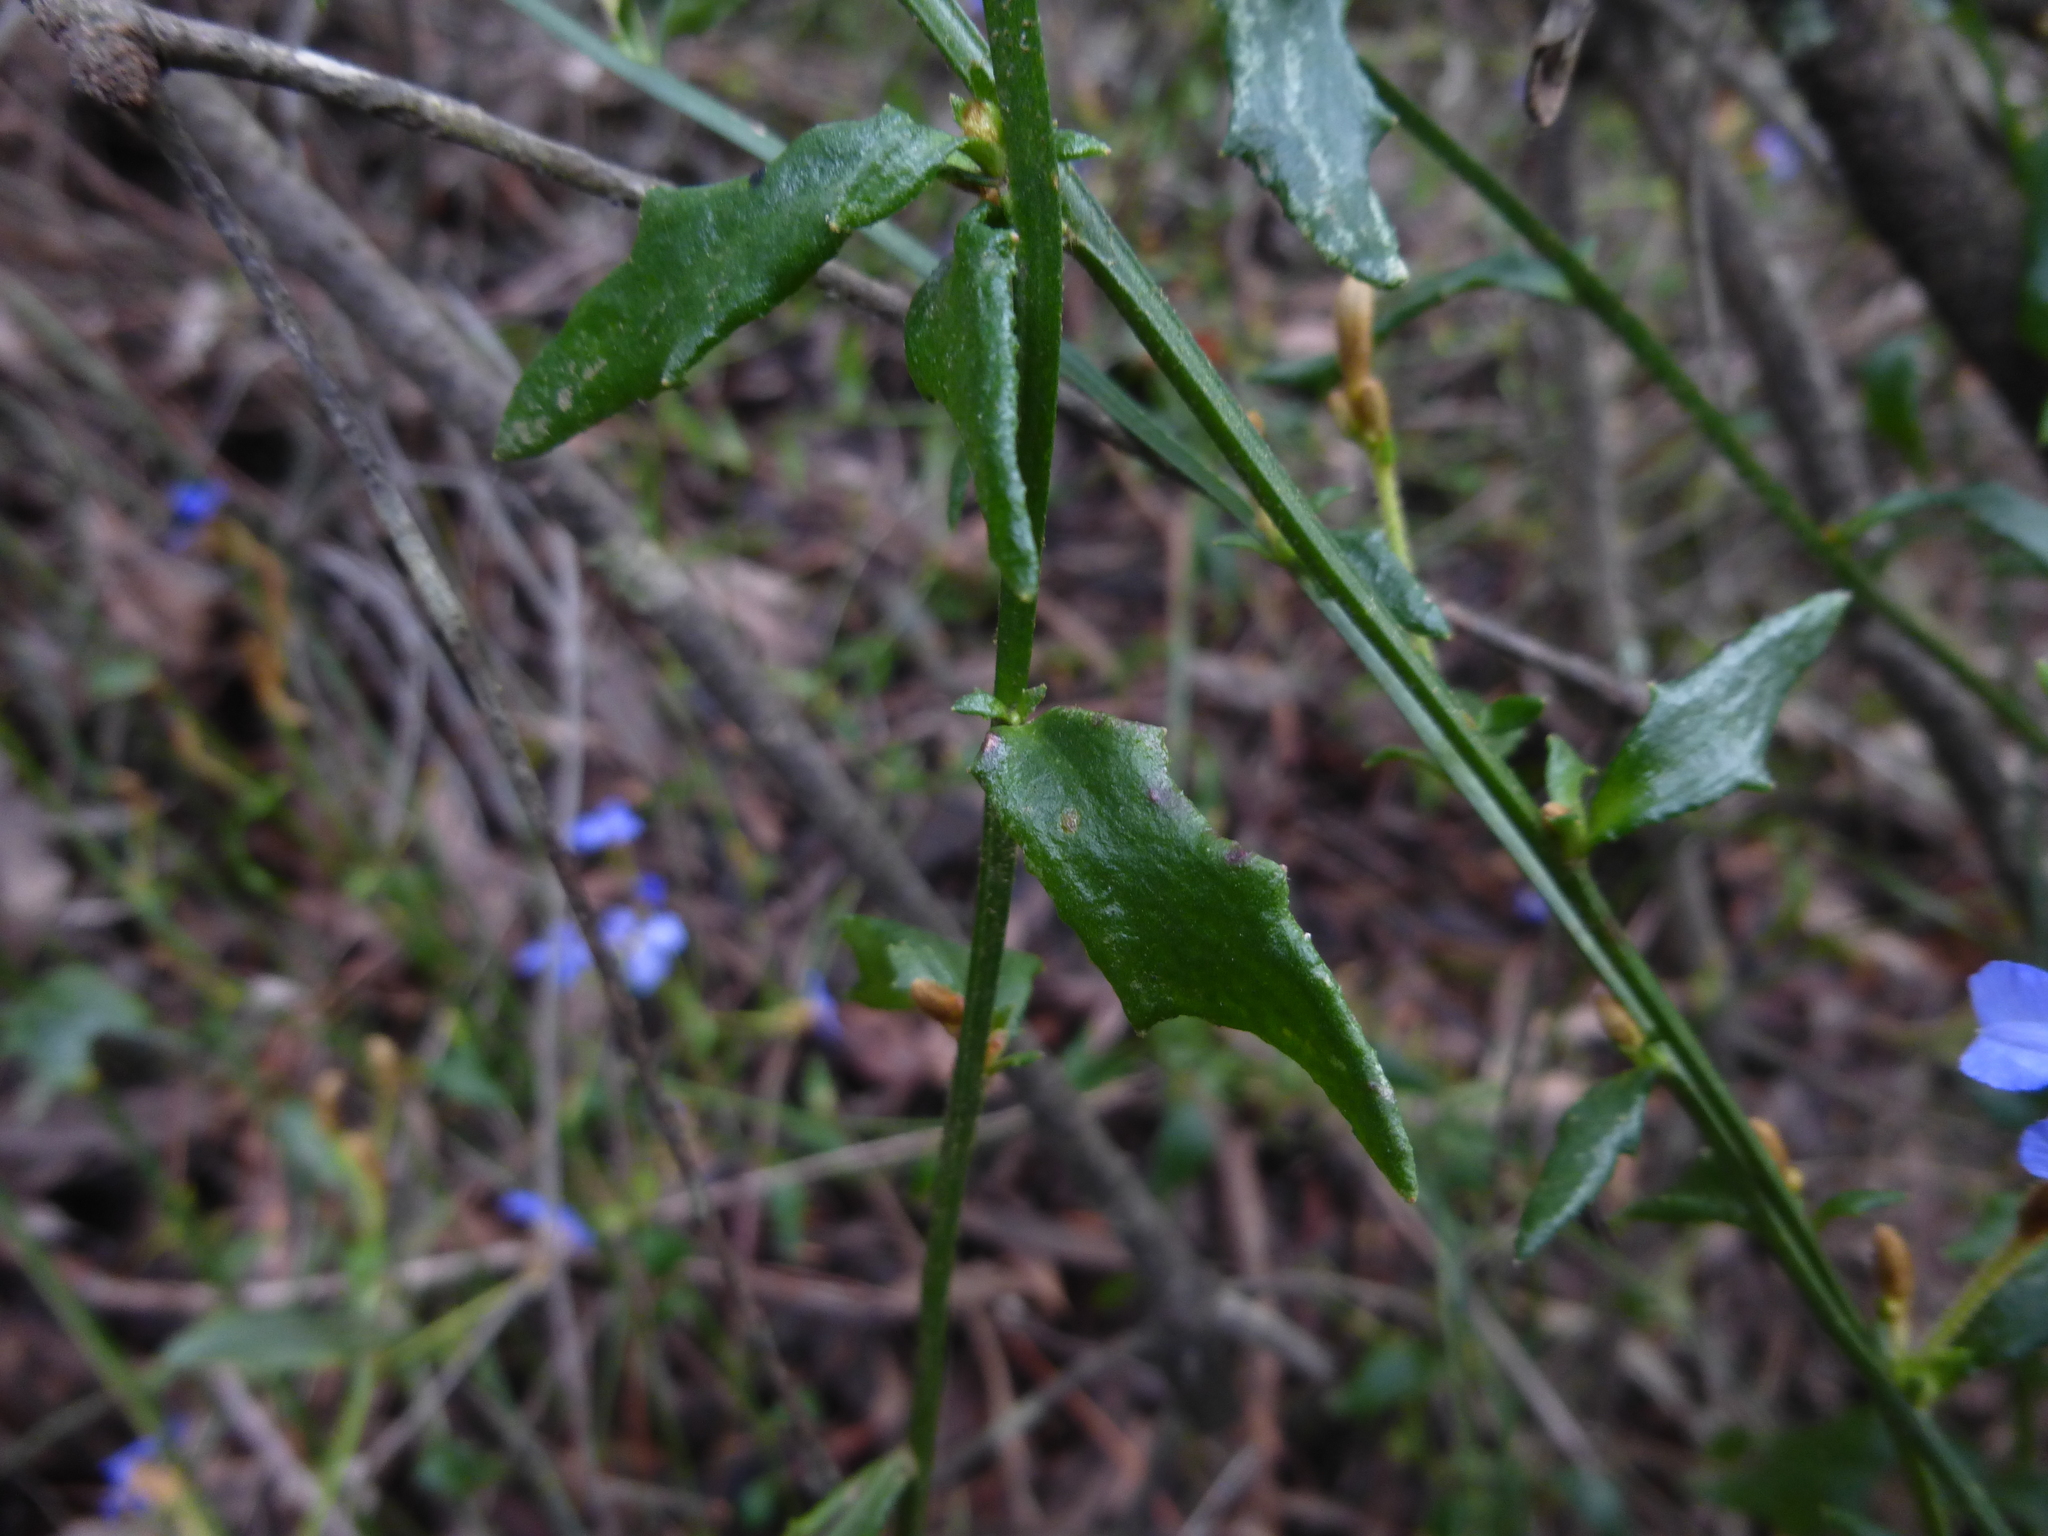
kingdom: Plantae
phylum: Tracheophyta
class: Magnoliopsida
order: Asterales
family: Goodeniaceae
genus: Dampiera
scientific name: Dampiera stricta
